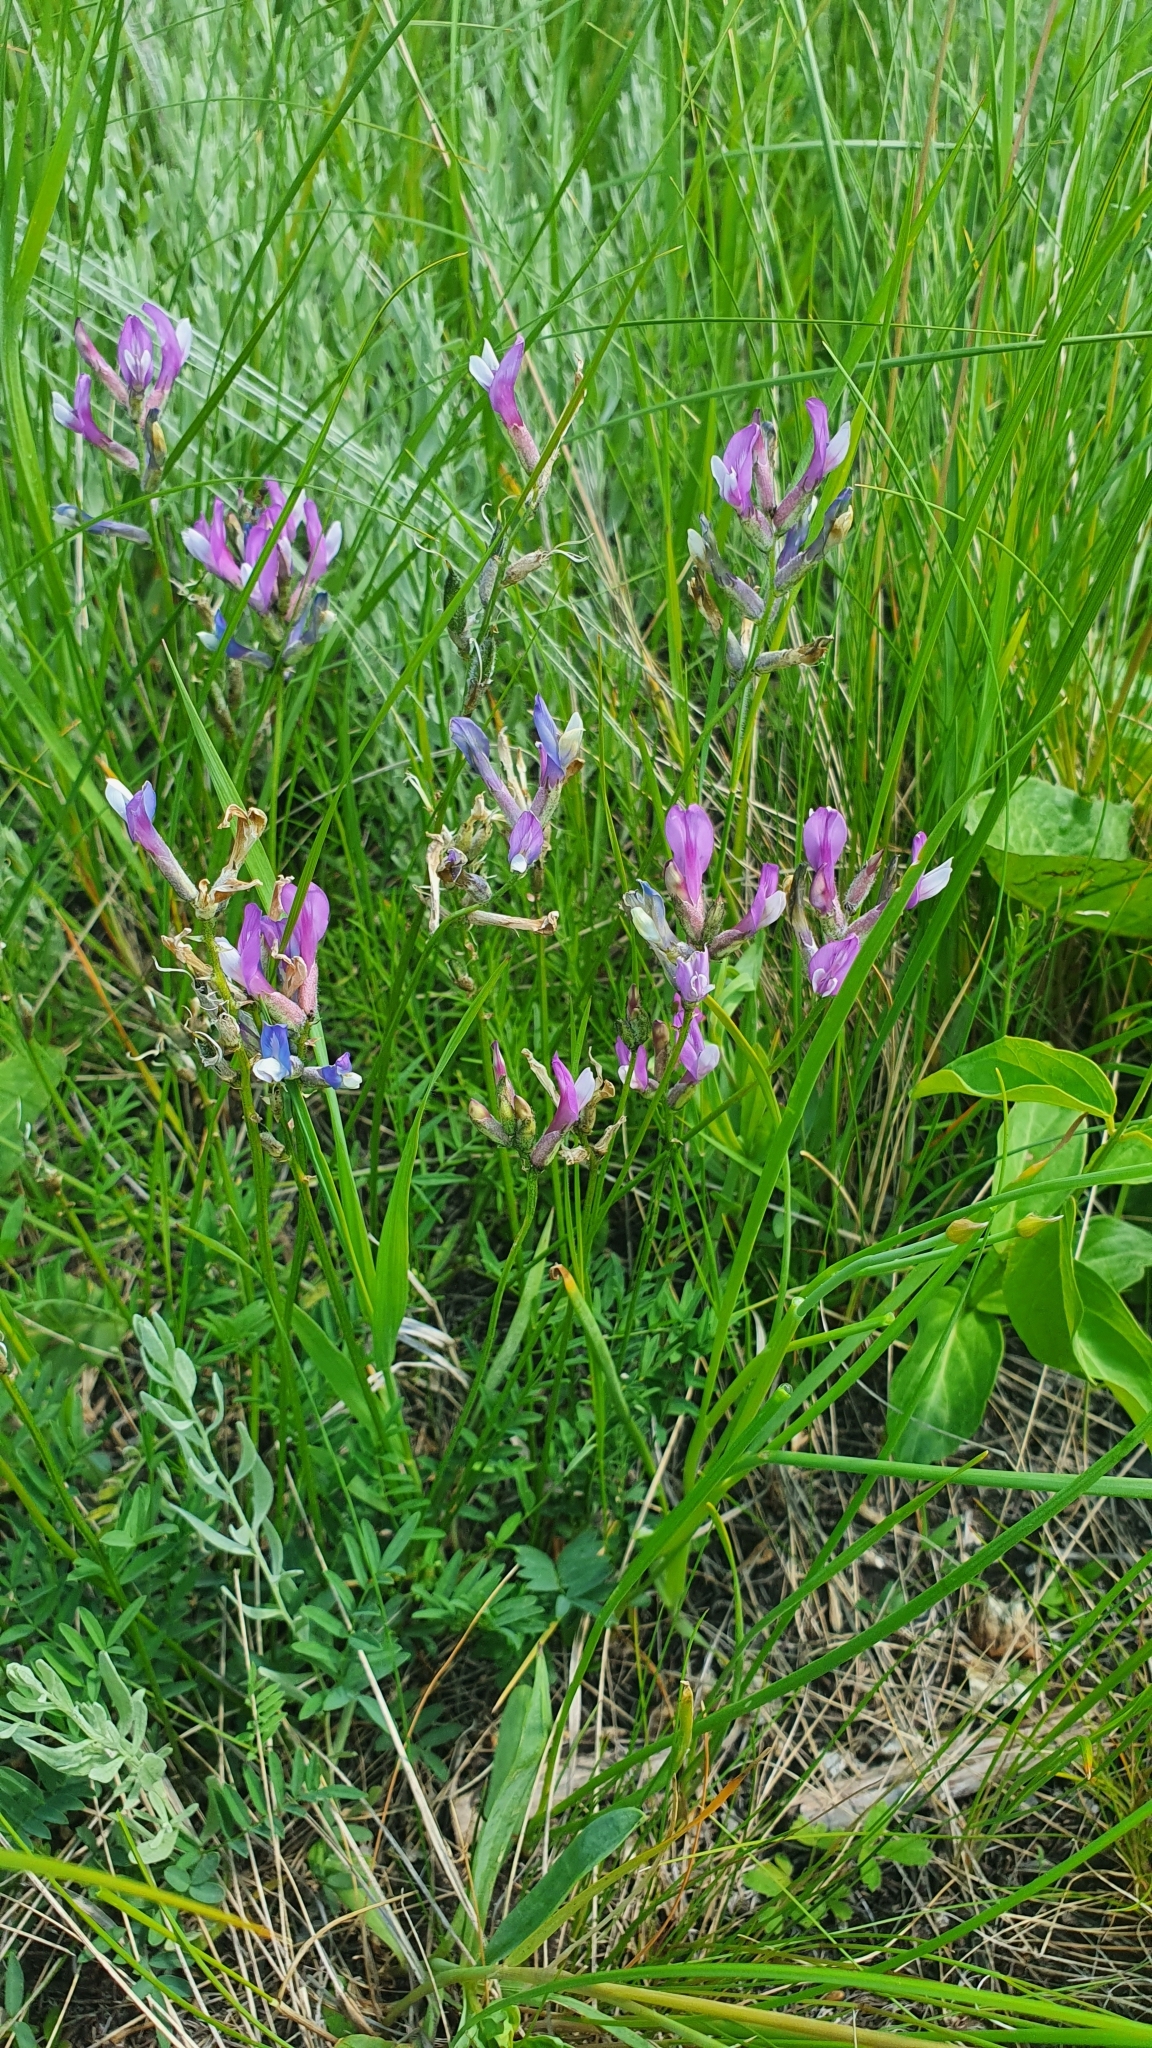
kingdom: Plantae
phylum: Tracheophyta
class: Magnoliopsida
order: Fabales
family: Fabaceae
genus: Astragalus
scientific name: Astragalus macropus
